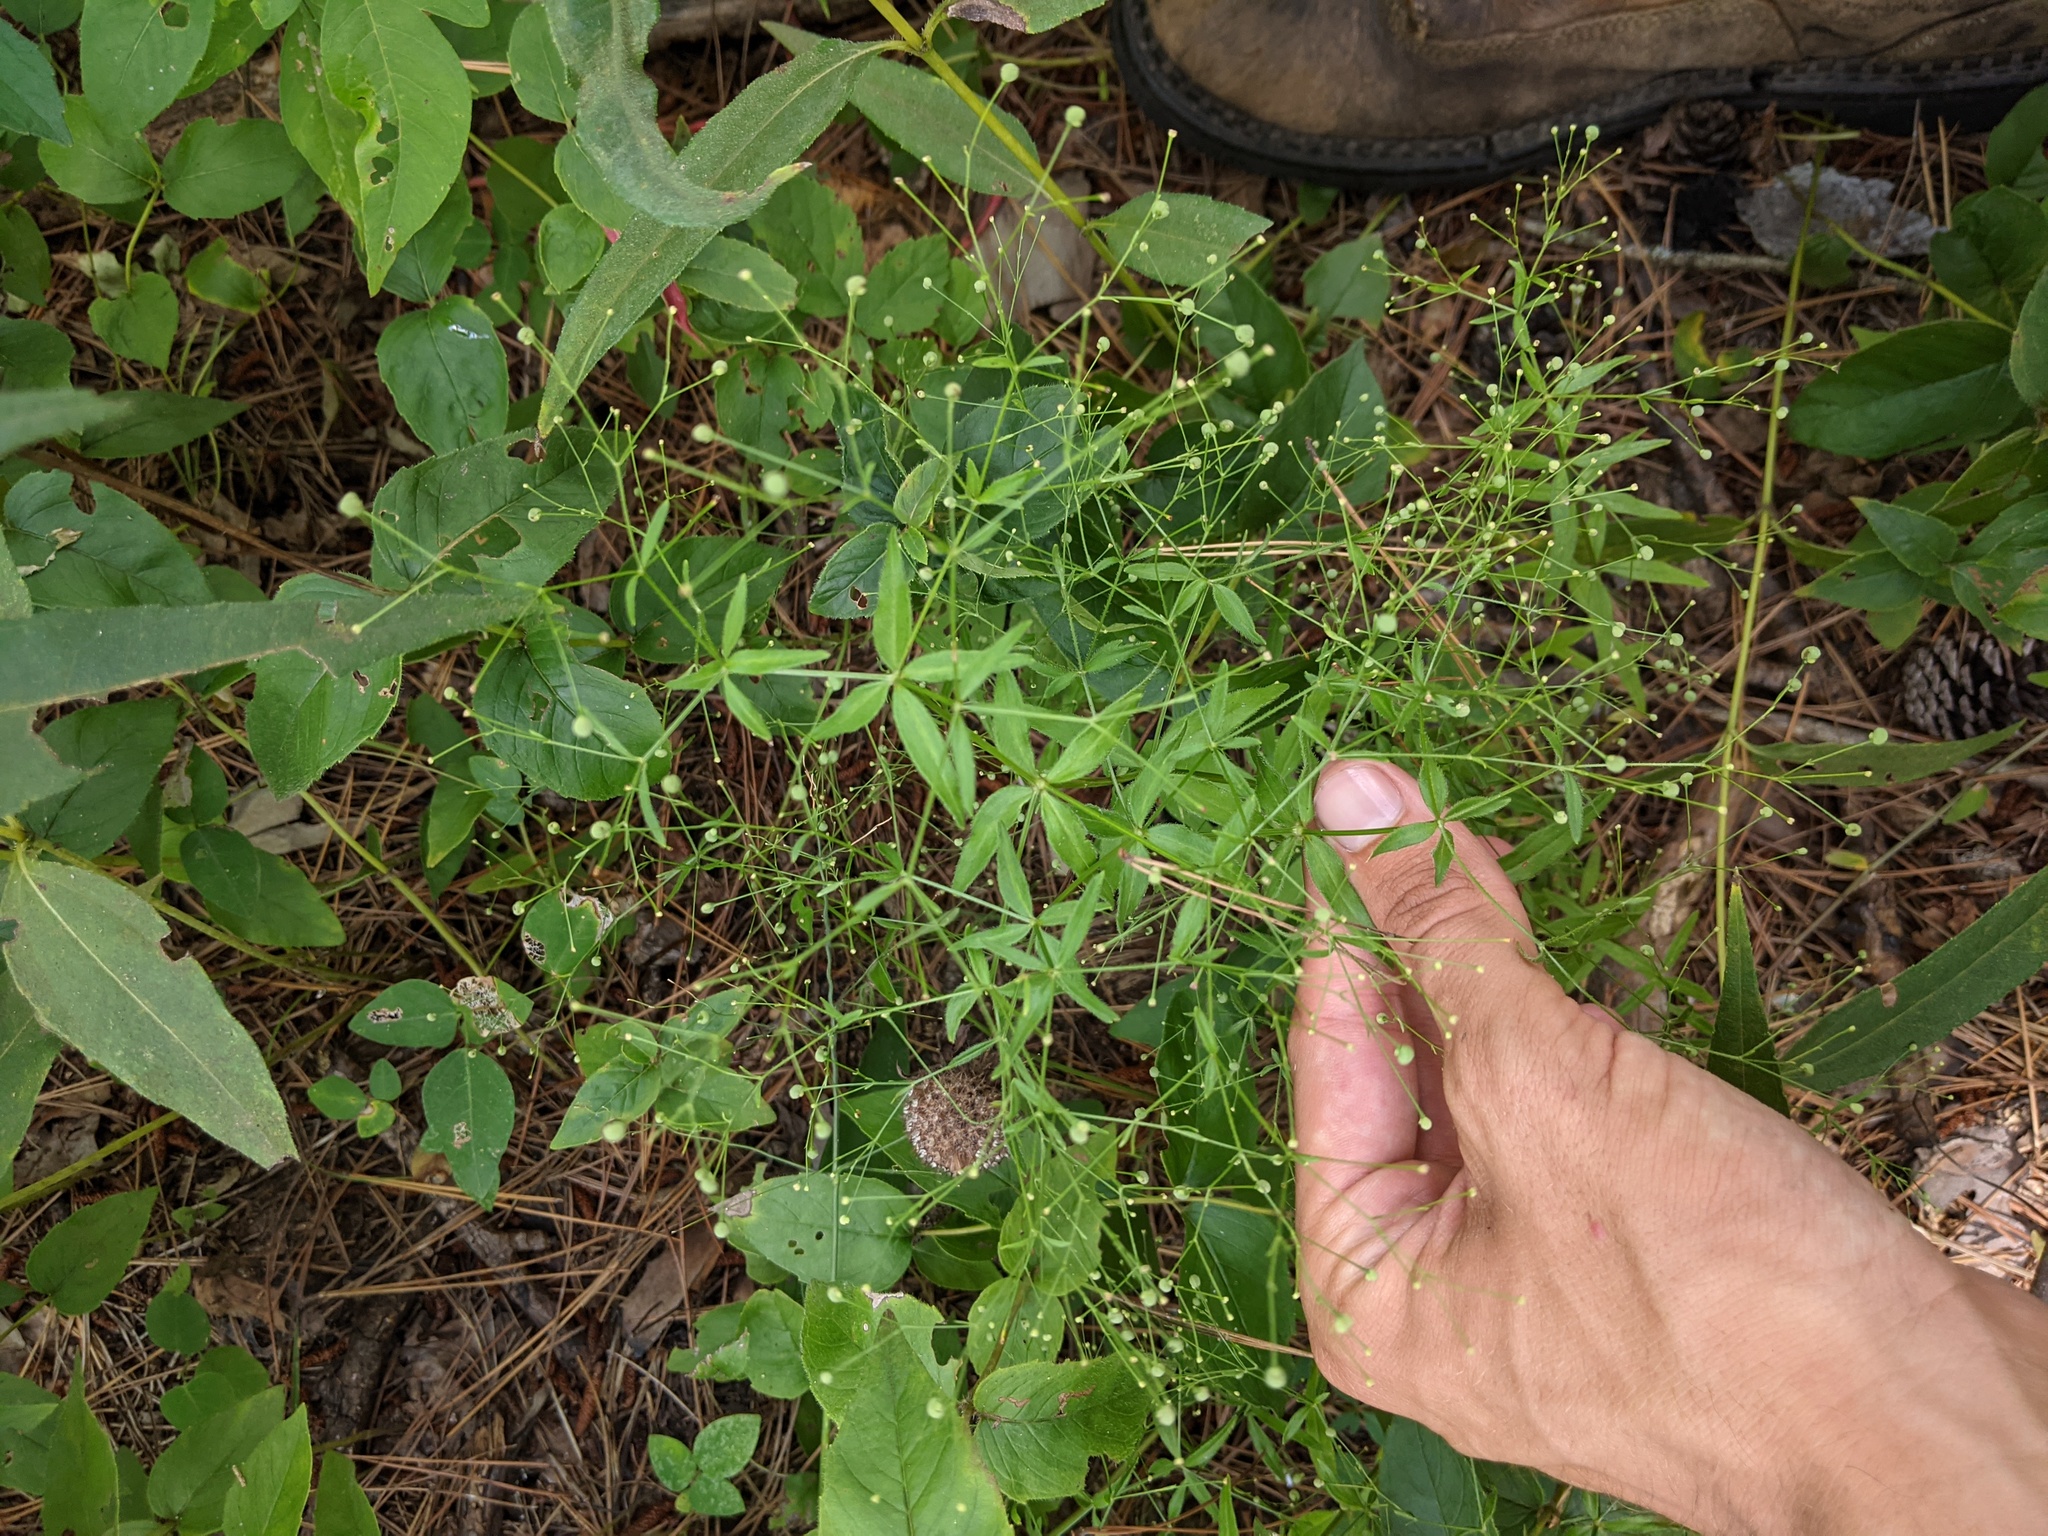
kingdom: Plantae
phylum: Tracheophyta
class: Magnoliopsida
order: Gentianales
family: Rubiaceae
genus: Galium
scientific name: Galium arkansanum
